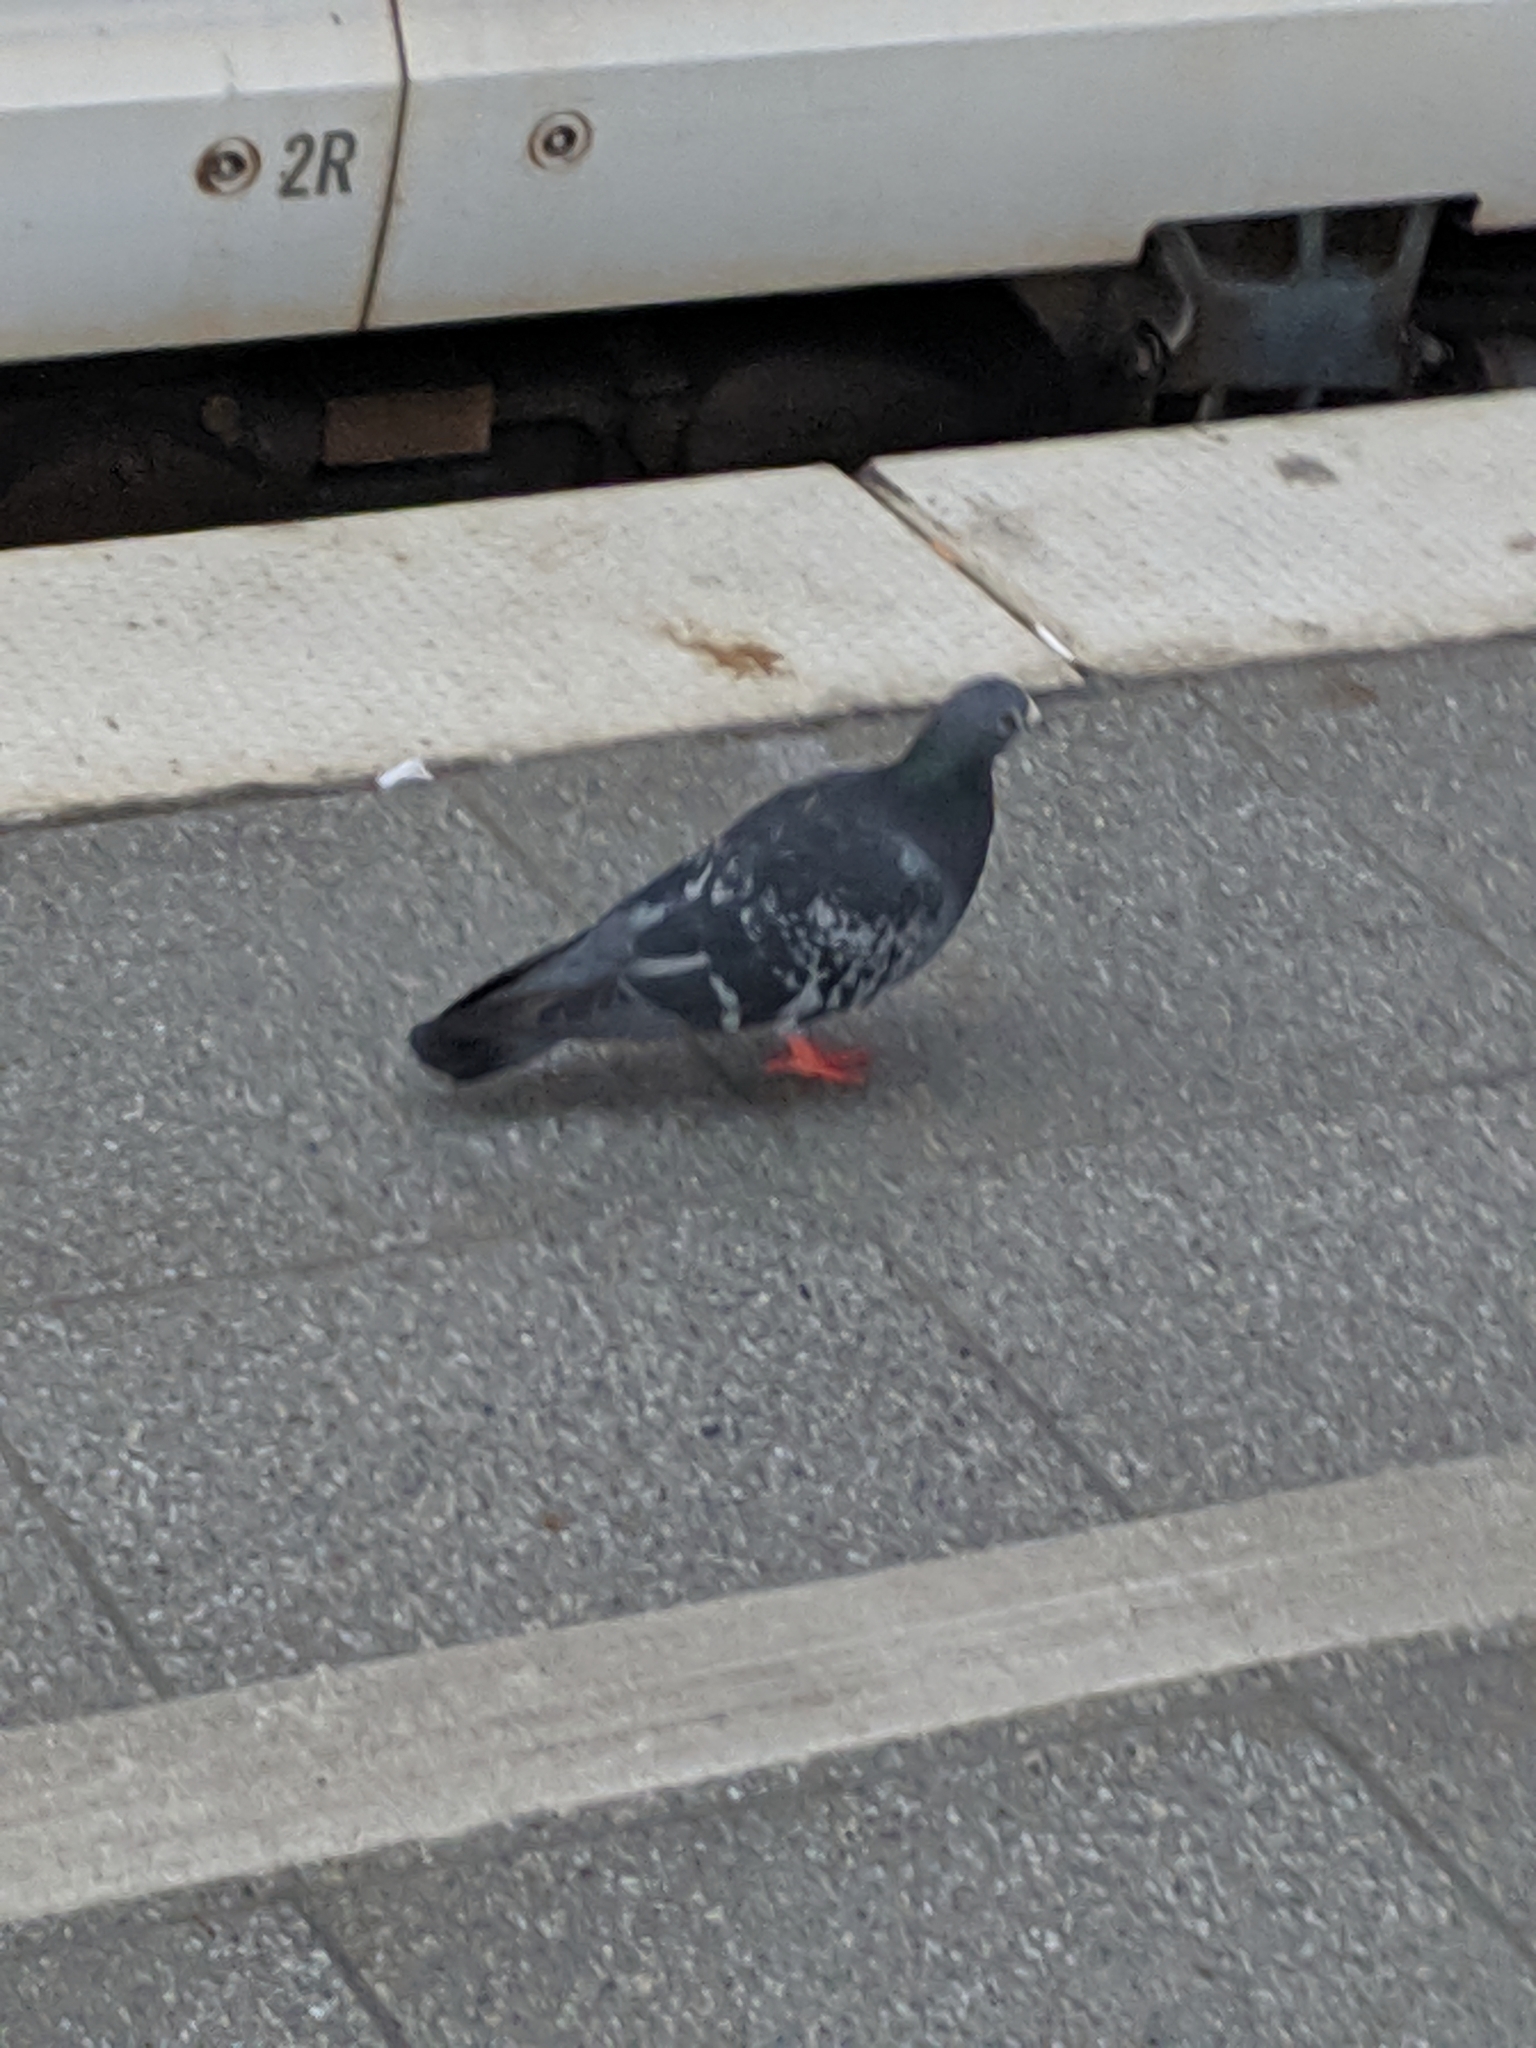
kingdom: Animalia
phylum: Chordata
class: Aves
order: Columbiformes
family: Columbidae
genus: Columba
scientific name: Columba livia
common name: Rock pigeon
